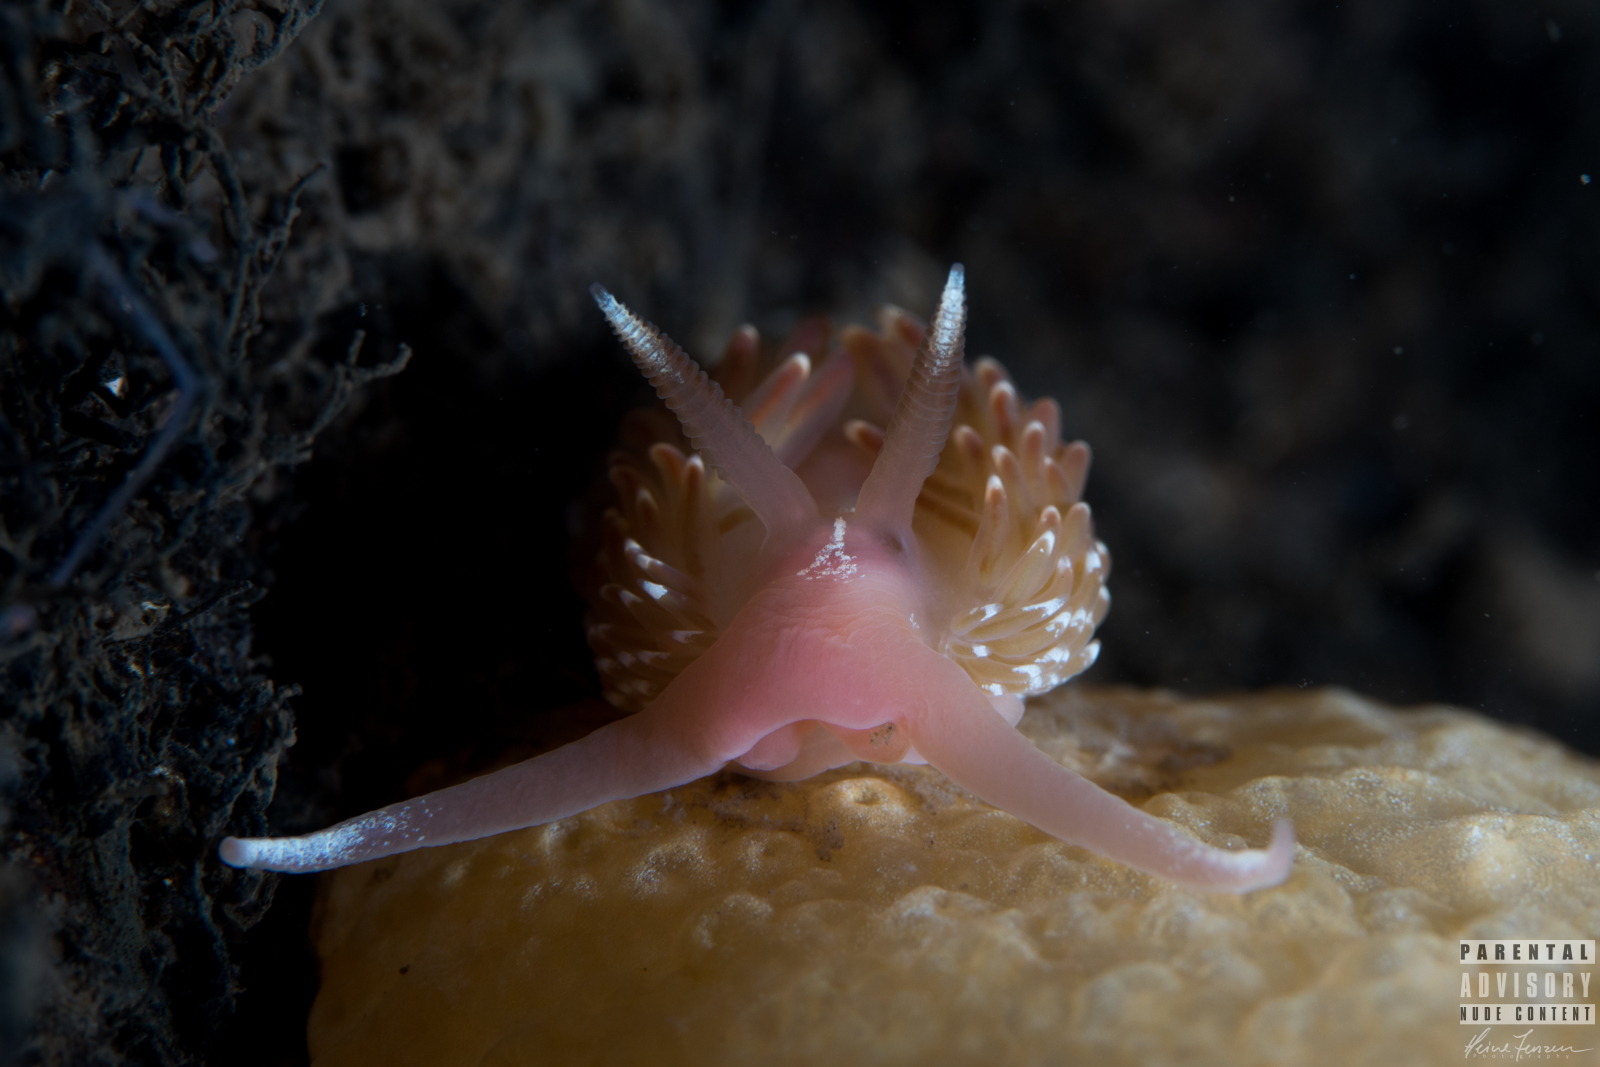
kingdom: Animalia
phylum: Mollusca
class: Gastropoda
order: Nudibranchia
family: Facelinidae
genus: Facelina
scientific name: Facelina bostoniensis
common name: Boston facelina
